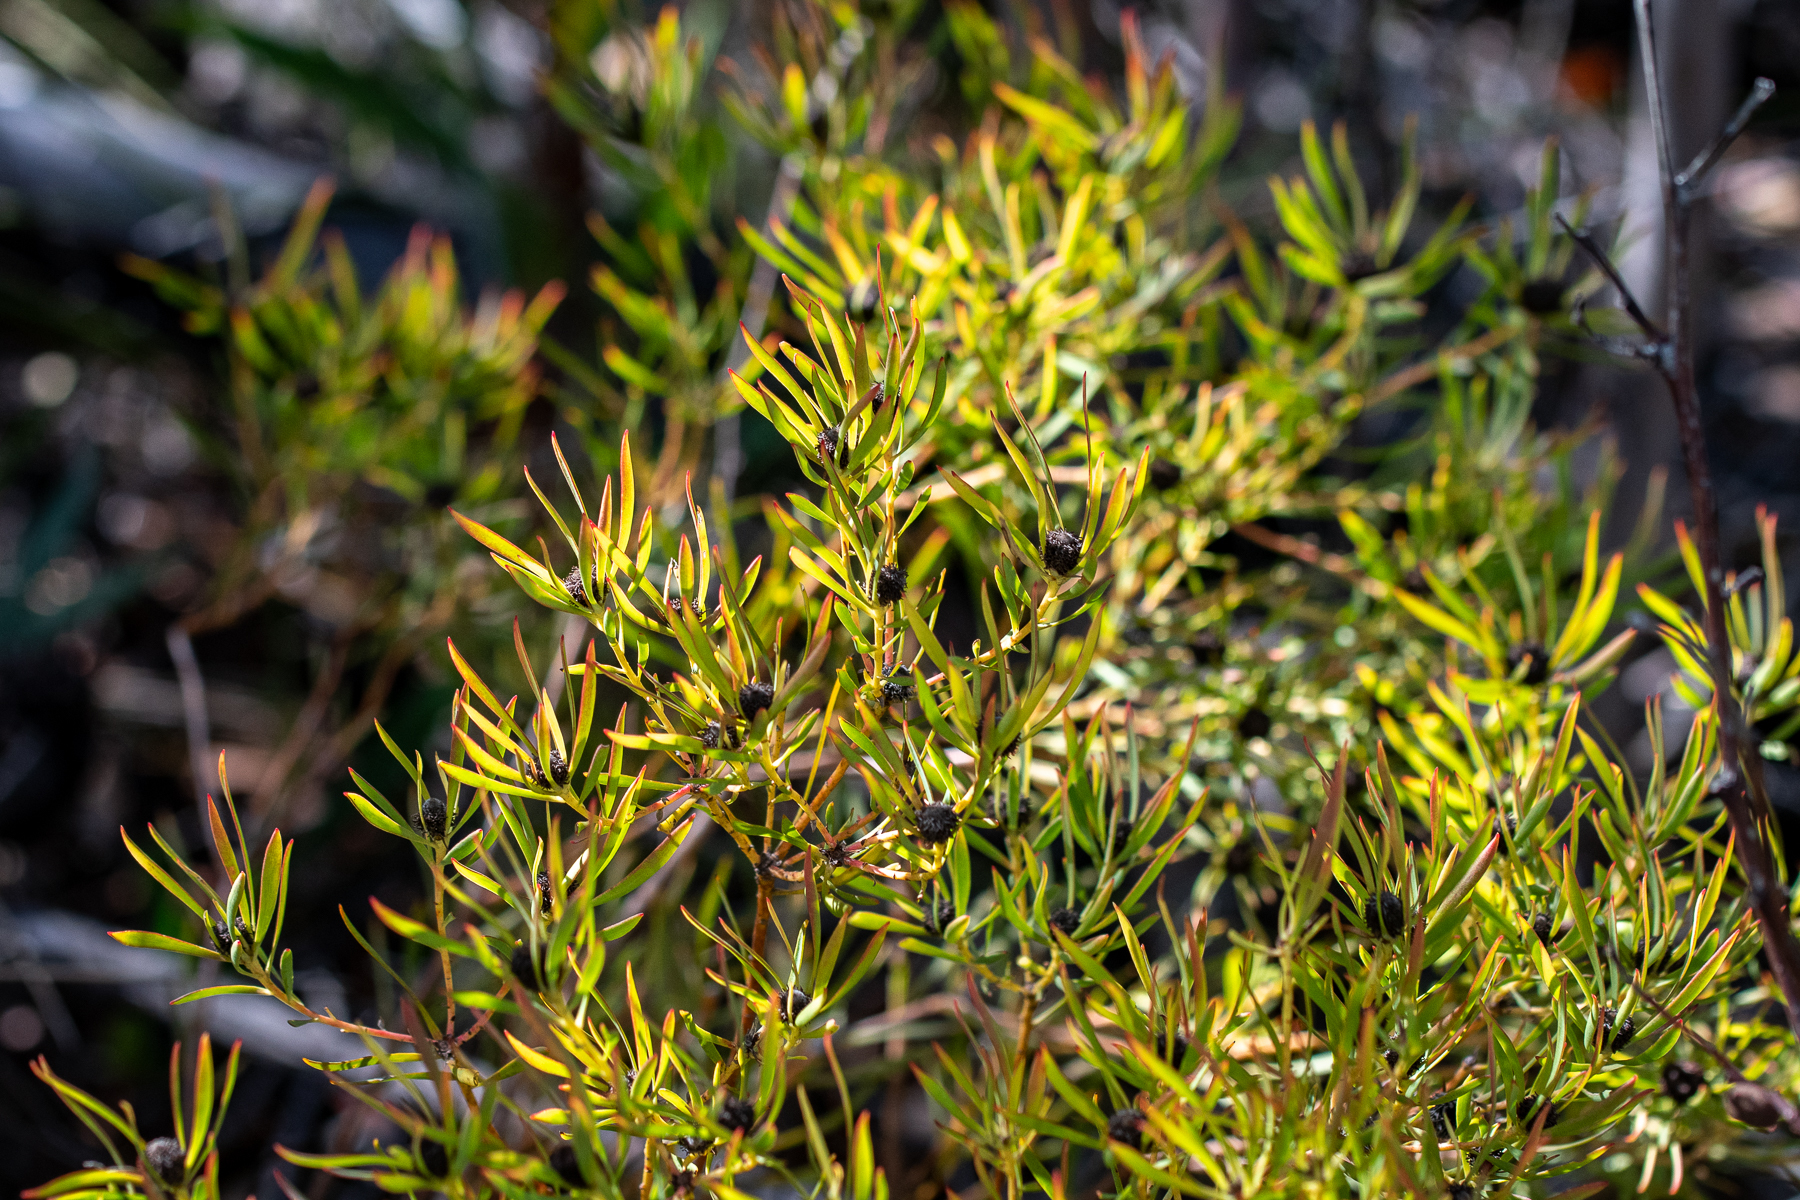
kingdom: Plantae
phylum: Tracheophyta
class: Magnoliopsida
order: Proteales
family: Proteaceae
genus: Leucadendron
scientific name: Leucadendron salignum
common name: Common sunshine conebush
